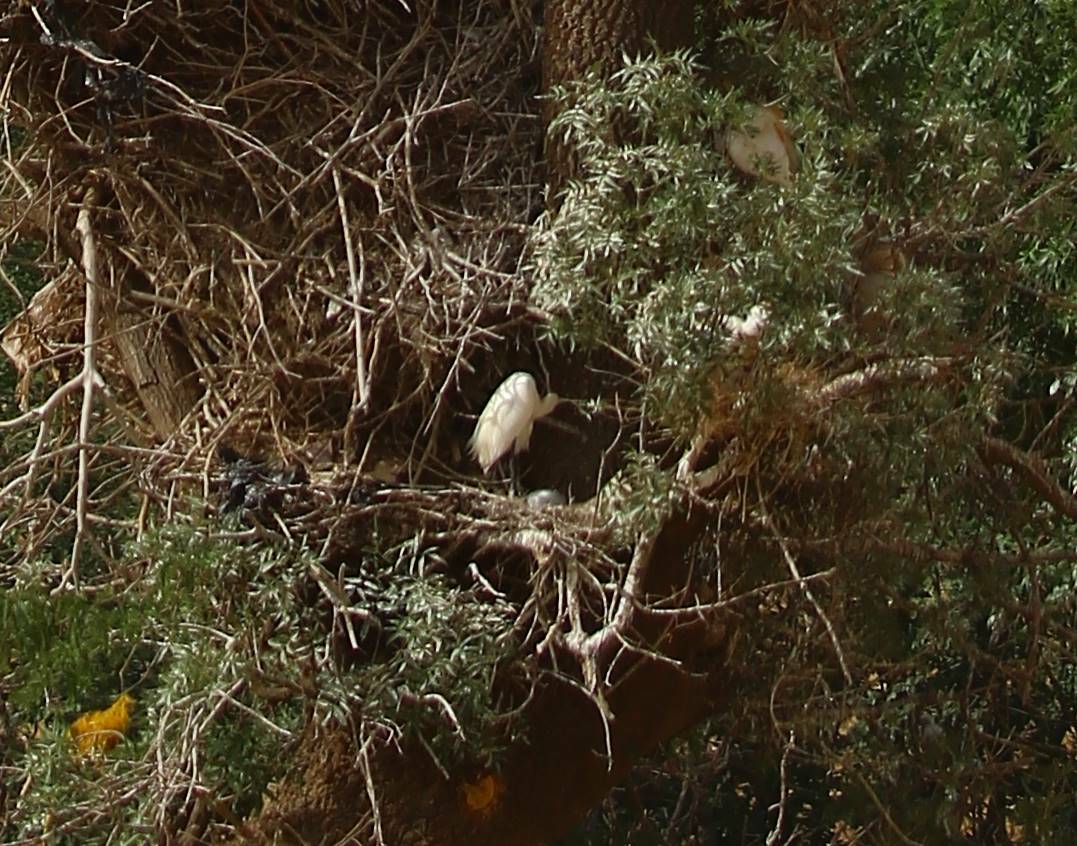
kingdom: Animalia
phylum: Chordata
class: Aves
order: Pelecaniformes
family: Ardeidae
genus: Bubulcus
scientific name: Bubulcus ibis
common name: Cattle egret
